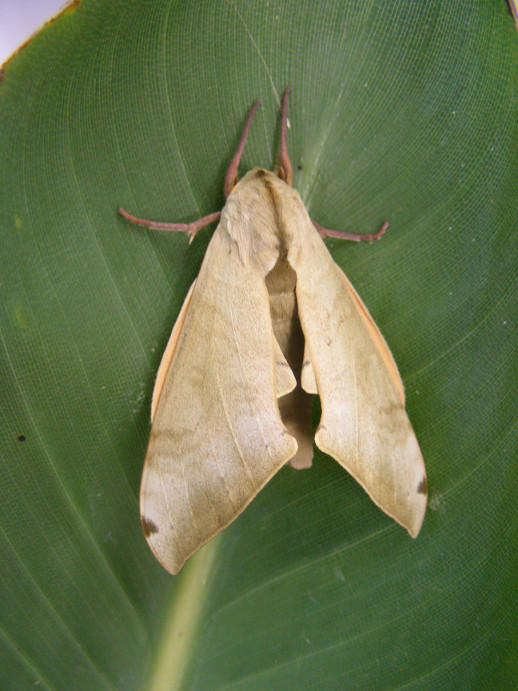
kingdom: Animalia
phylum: Arthropoda
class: Insecta
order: Lepidoptera
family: Sphingidae
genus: Pseudoclanis
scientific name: Pseudoclanis postica
